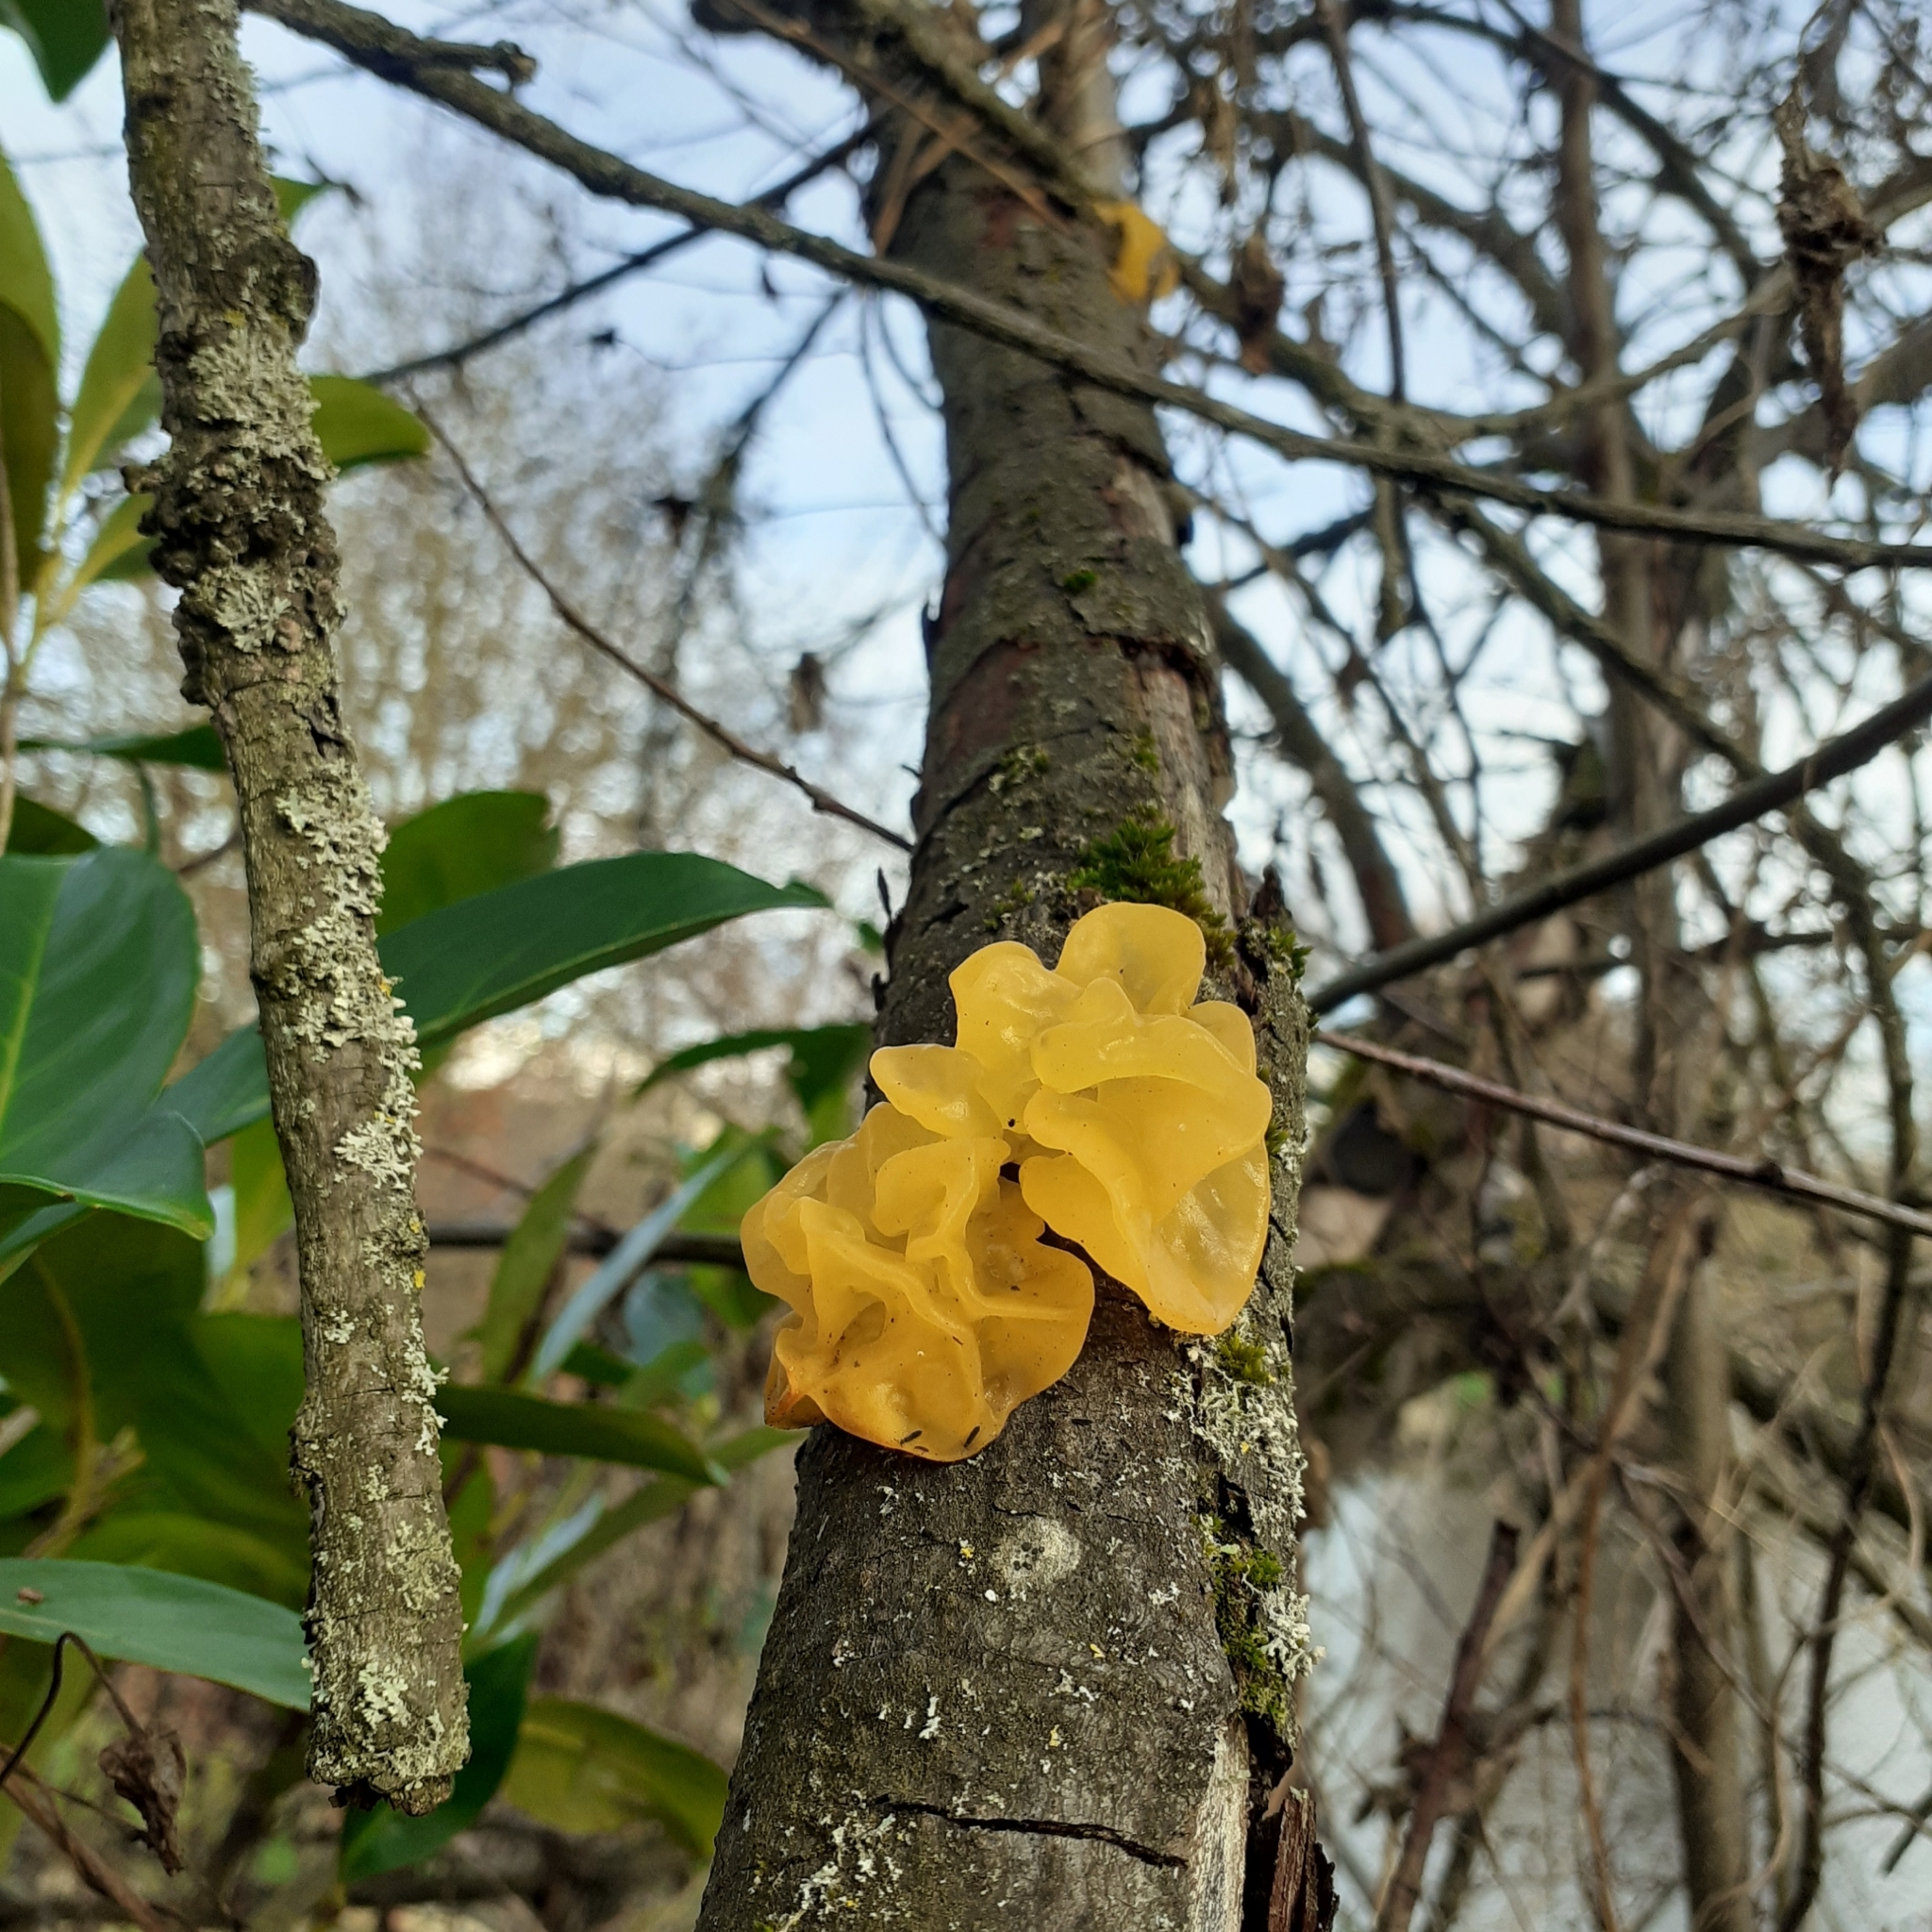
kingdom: Fungi
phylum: Basidiomycota
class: Tremellomycetes
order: Tremellales
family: Tremellaceae
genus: Tremella
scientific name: Tremella mesenterica
